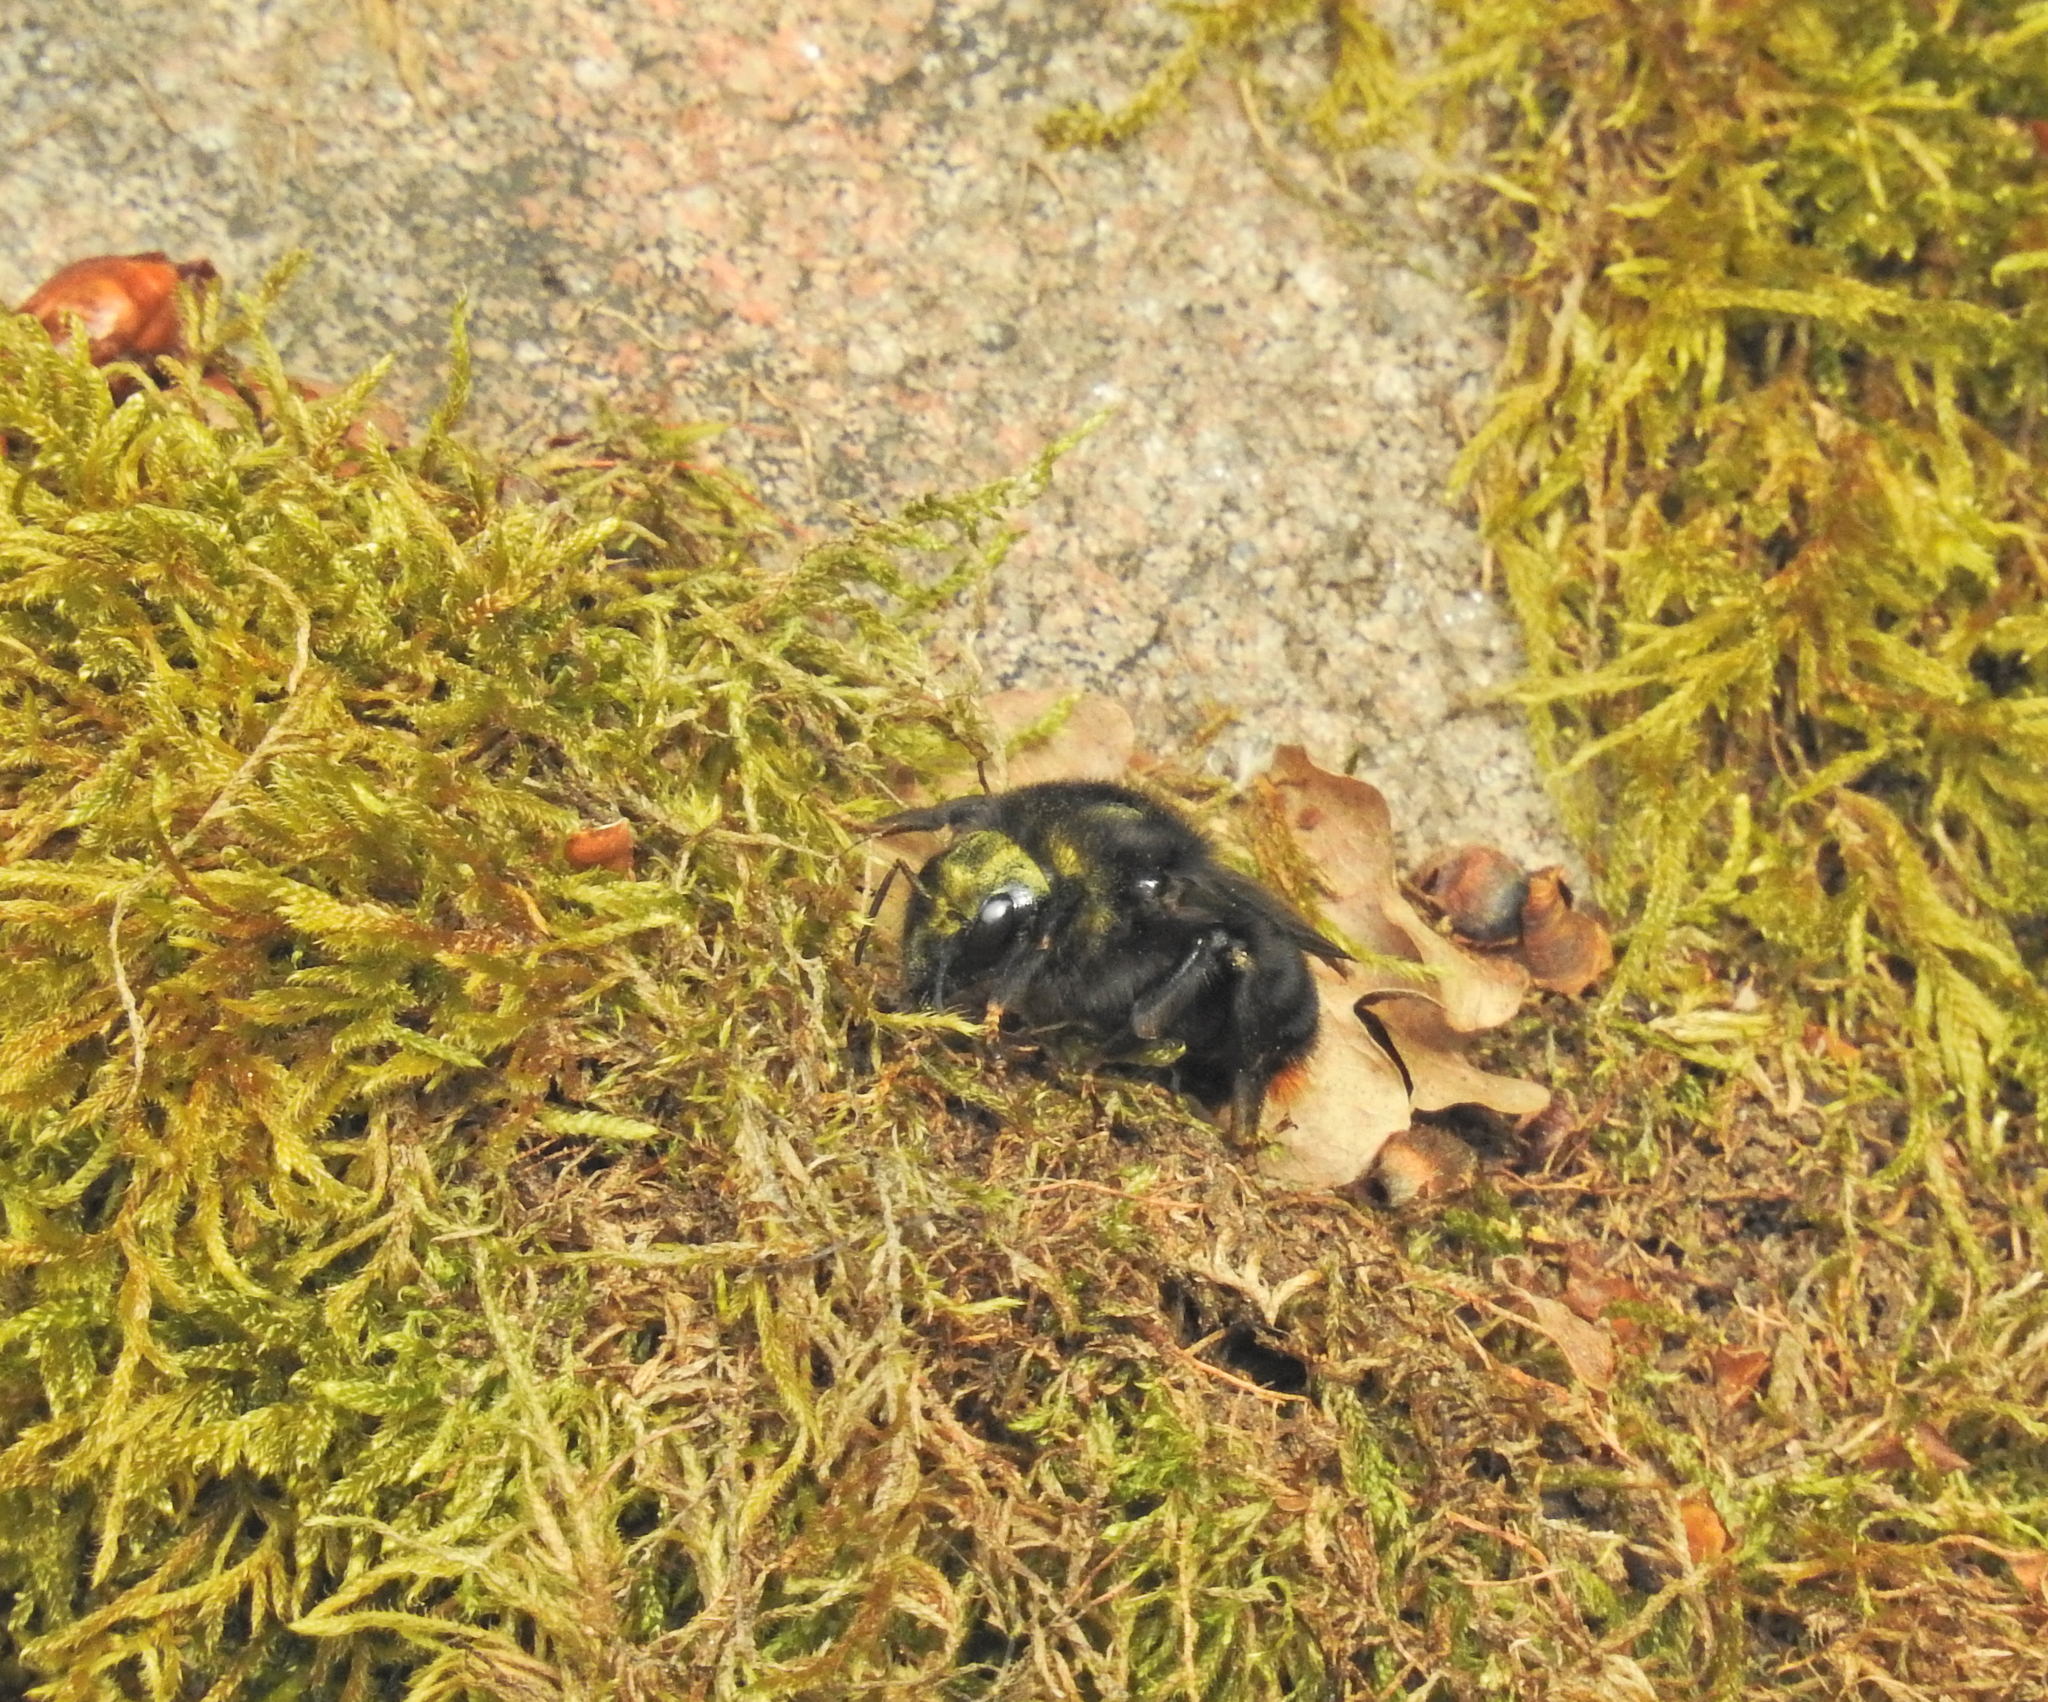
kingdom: Animalia
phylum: Arthropoda
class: Insecta
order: Hymenoptera
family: Apidae
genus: Bombus
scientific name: Bombus rupestris
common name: Hill cuckoo-bee
